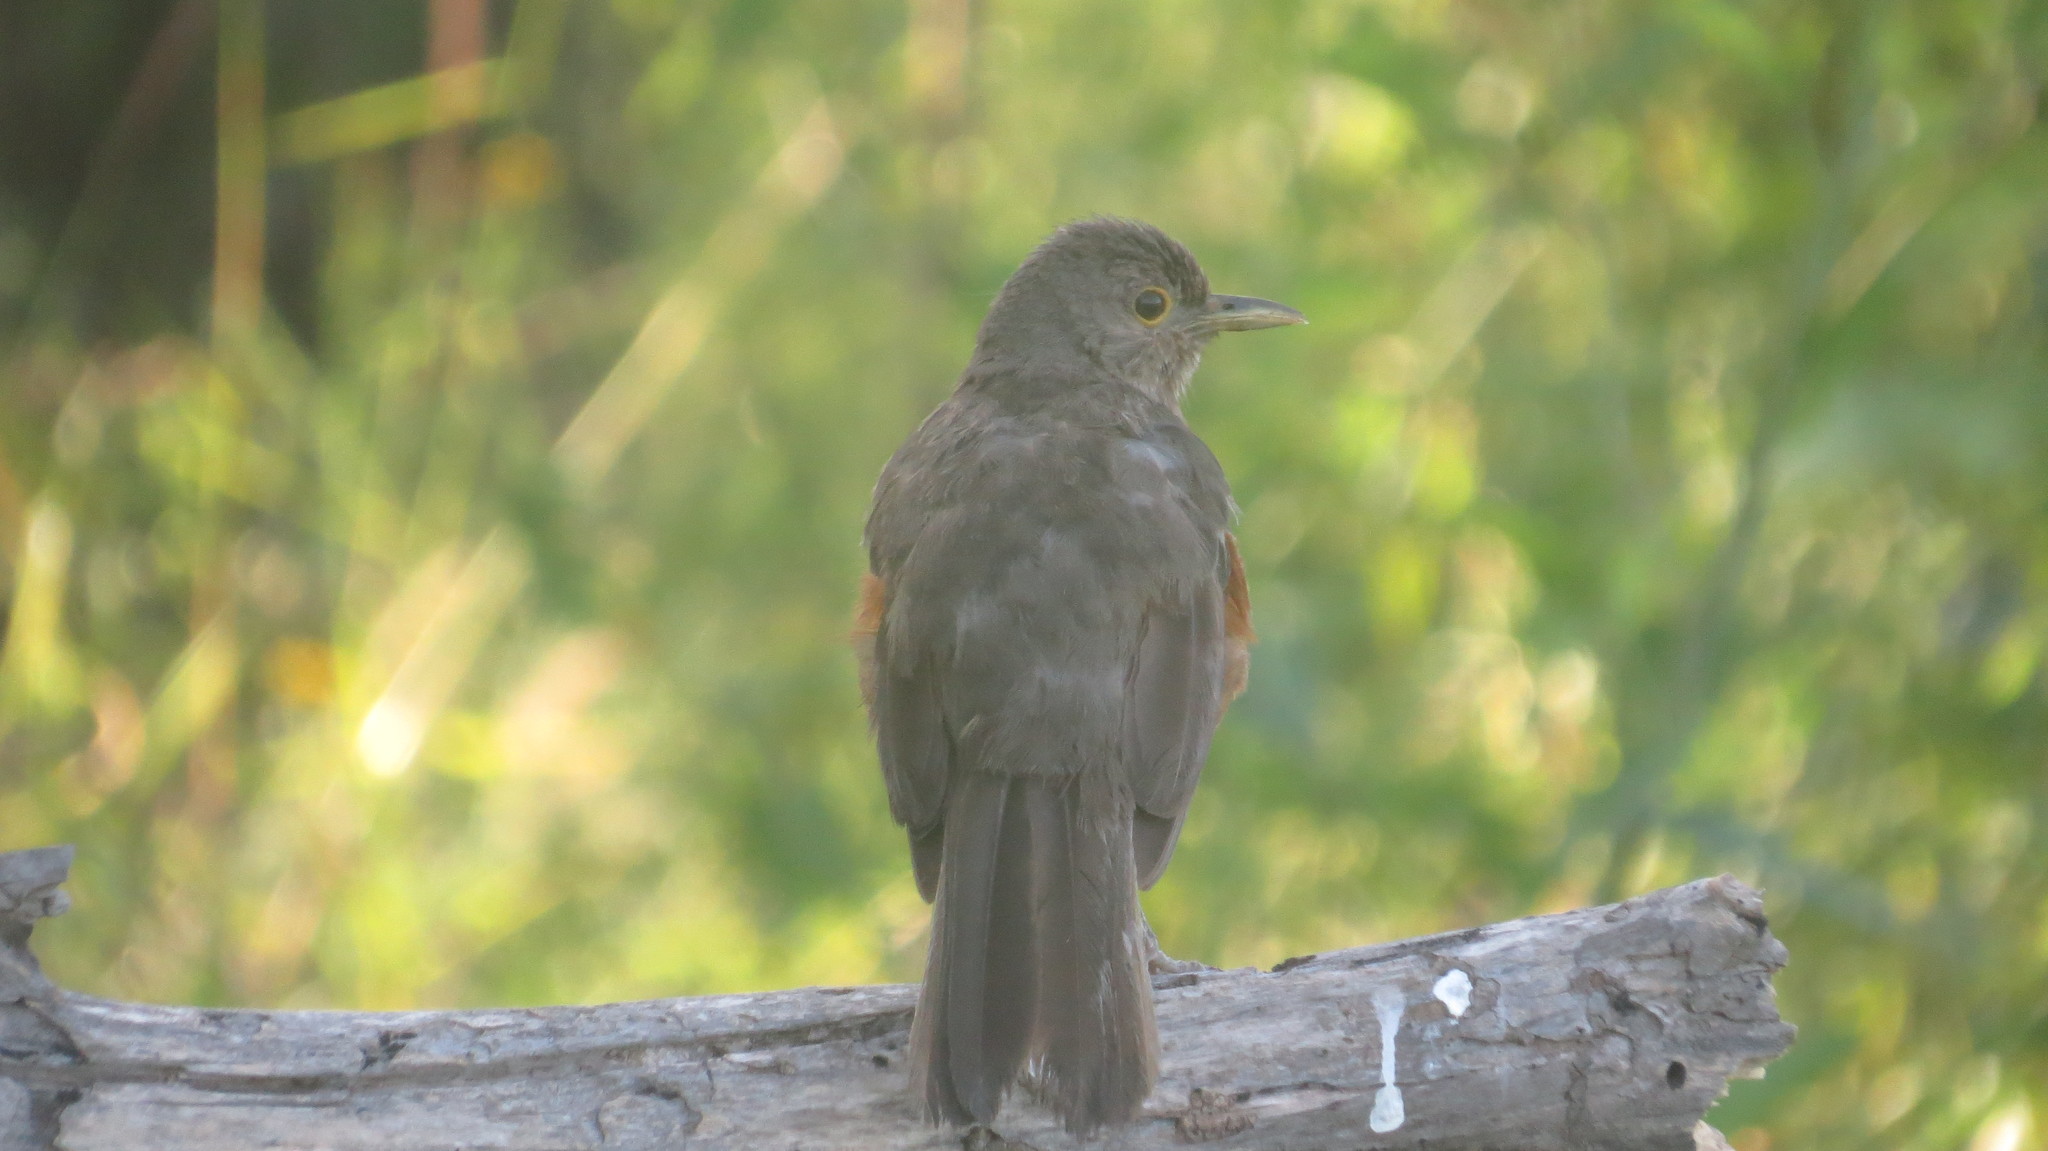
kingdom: Animalia
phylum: Chordata
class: Aves
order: Passeriformes
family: Turdidae
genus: Turdus
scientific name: Turdus rufiventris
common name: Rufous-bellied thrush
